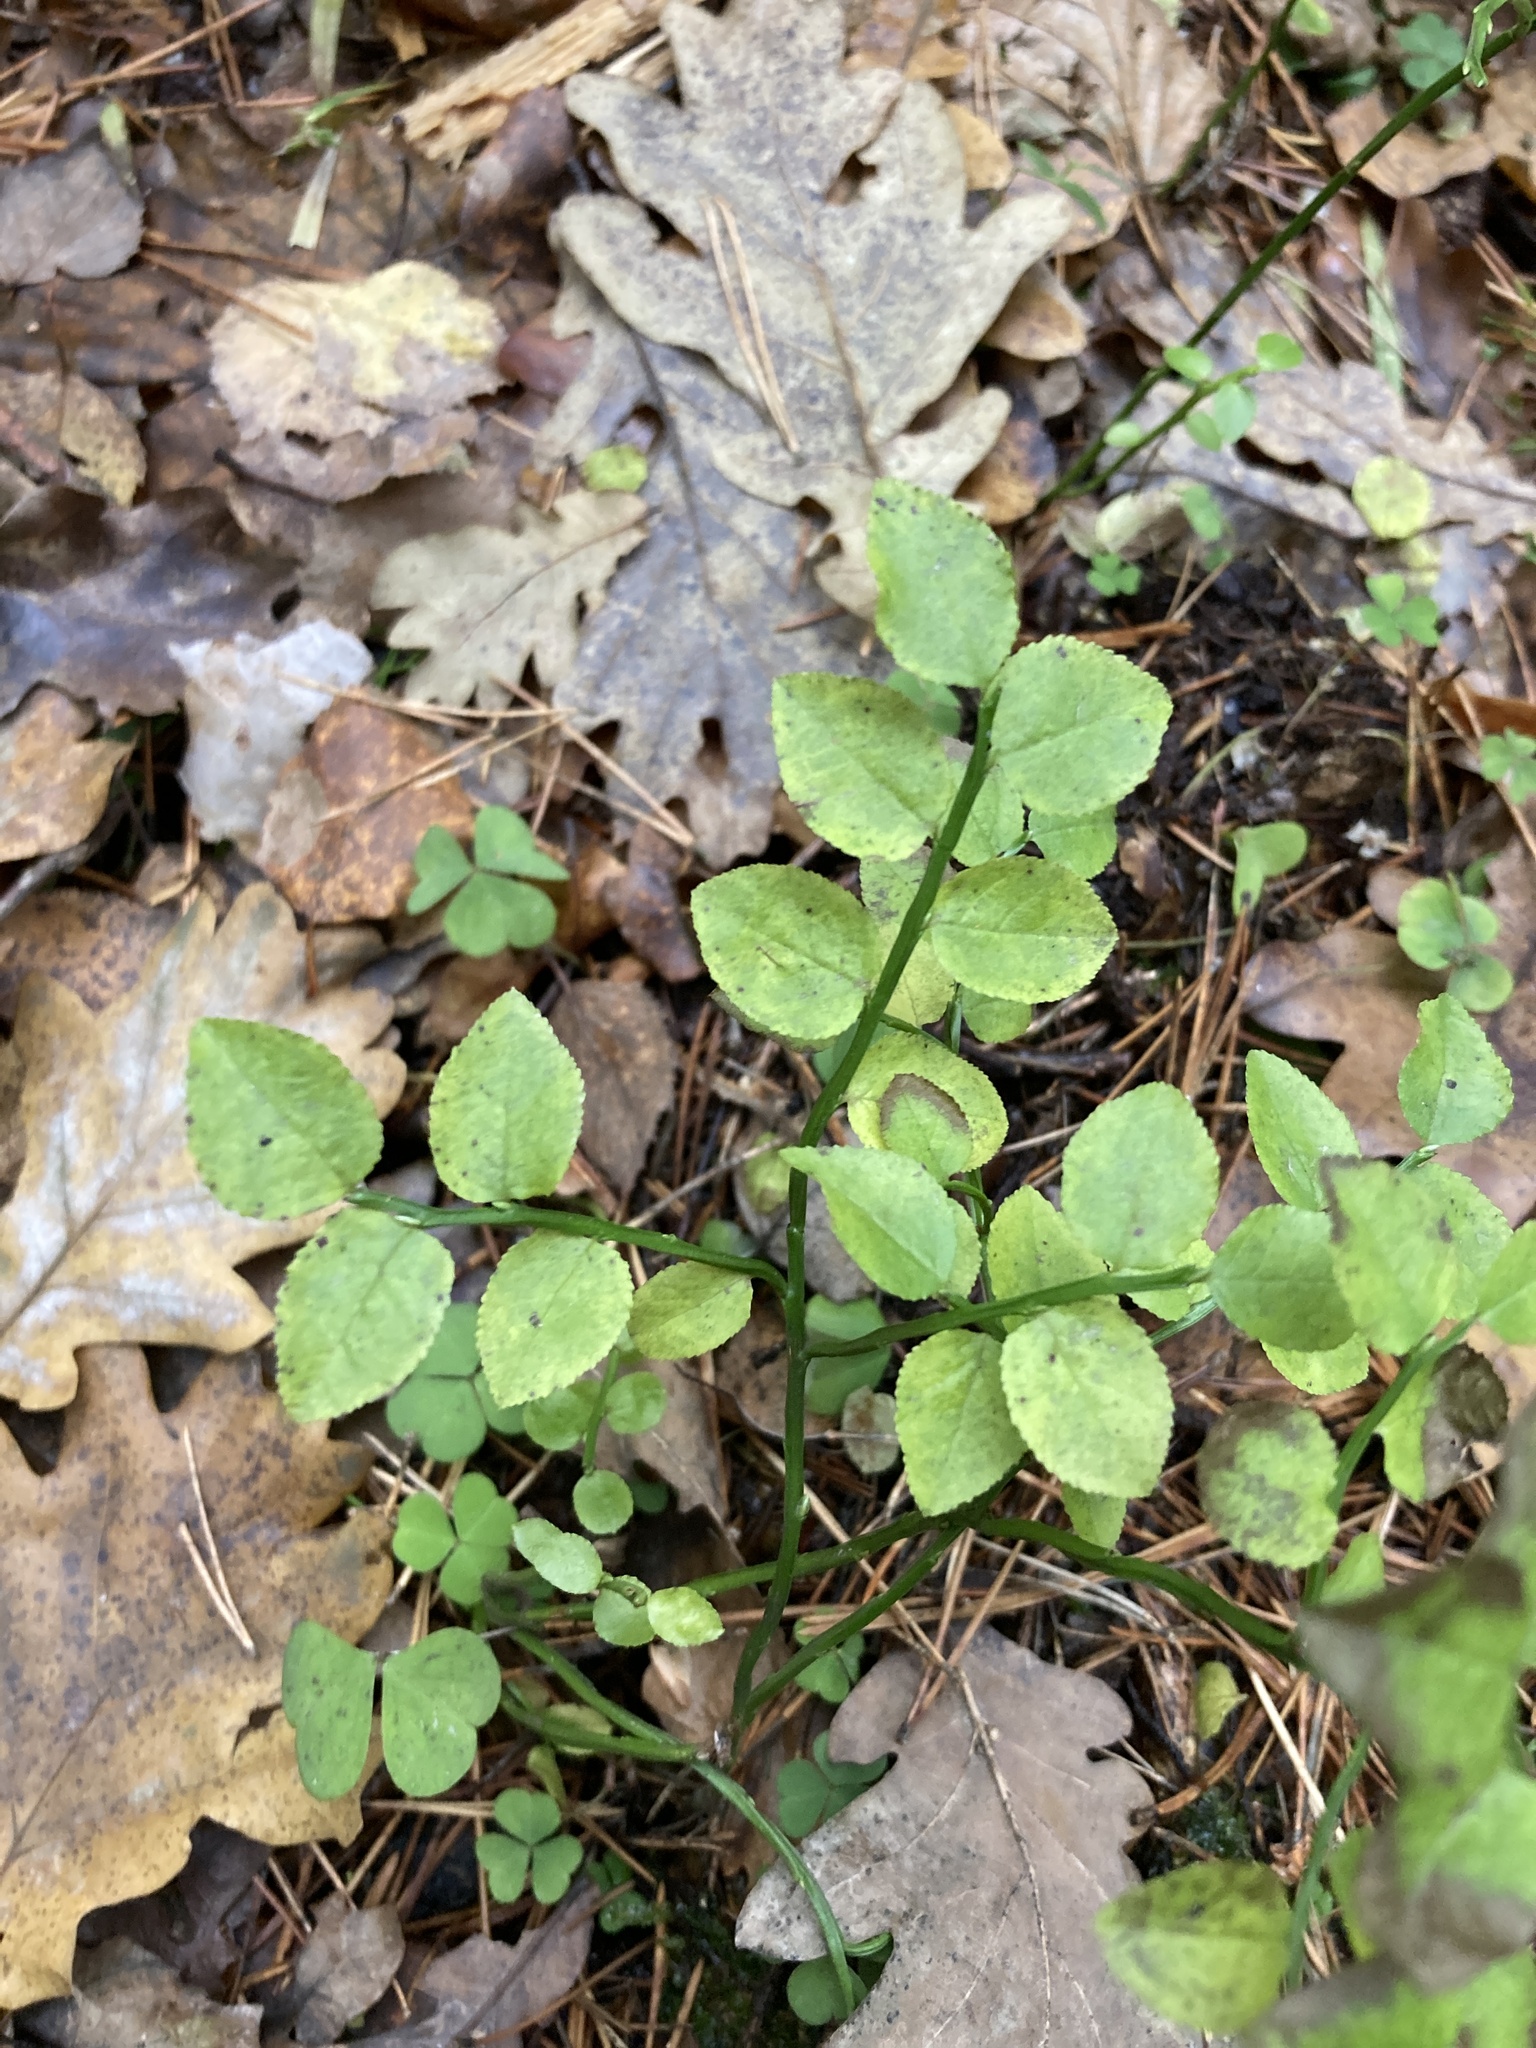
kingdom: Plantae
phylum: Tracheophyta
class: Magnoliopsida
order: Ericales
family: Ericaceae
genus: Vaccinium
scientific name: Vaccinium myrtillus
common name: Bilberry
